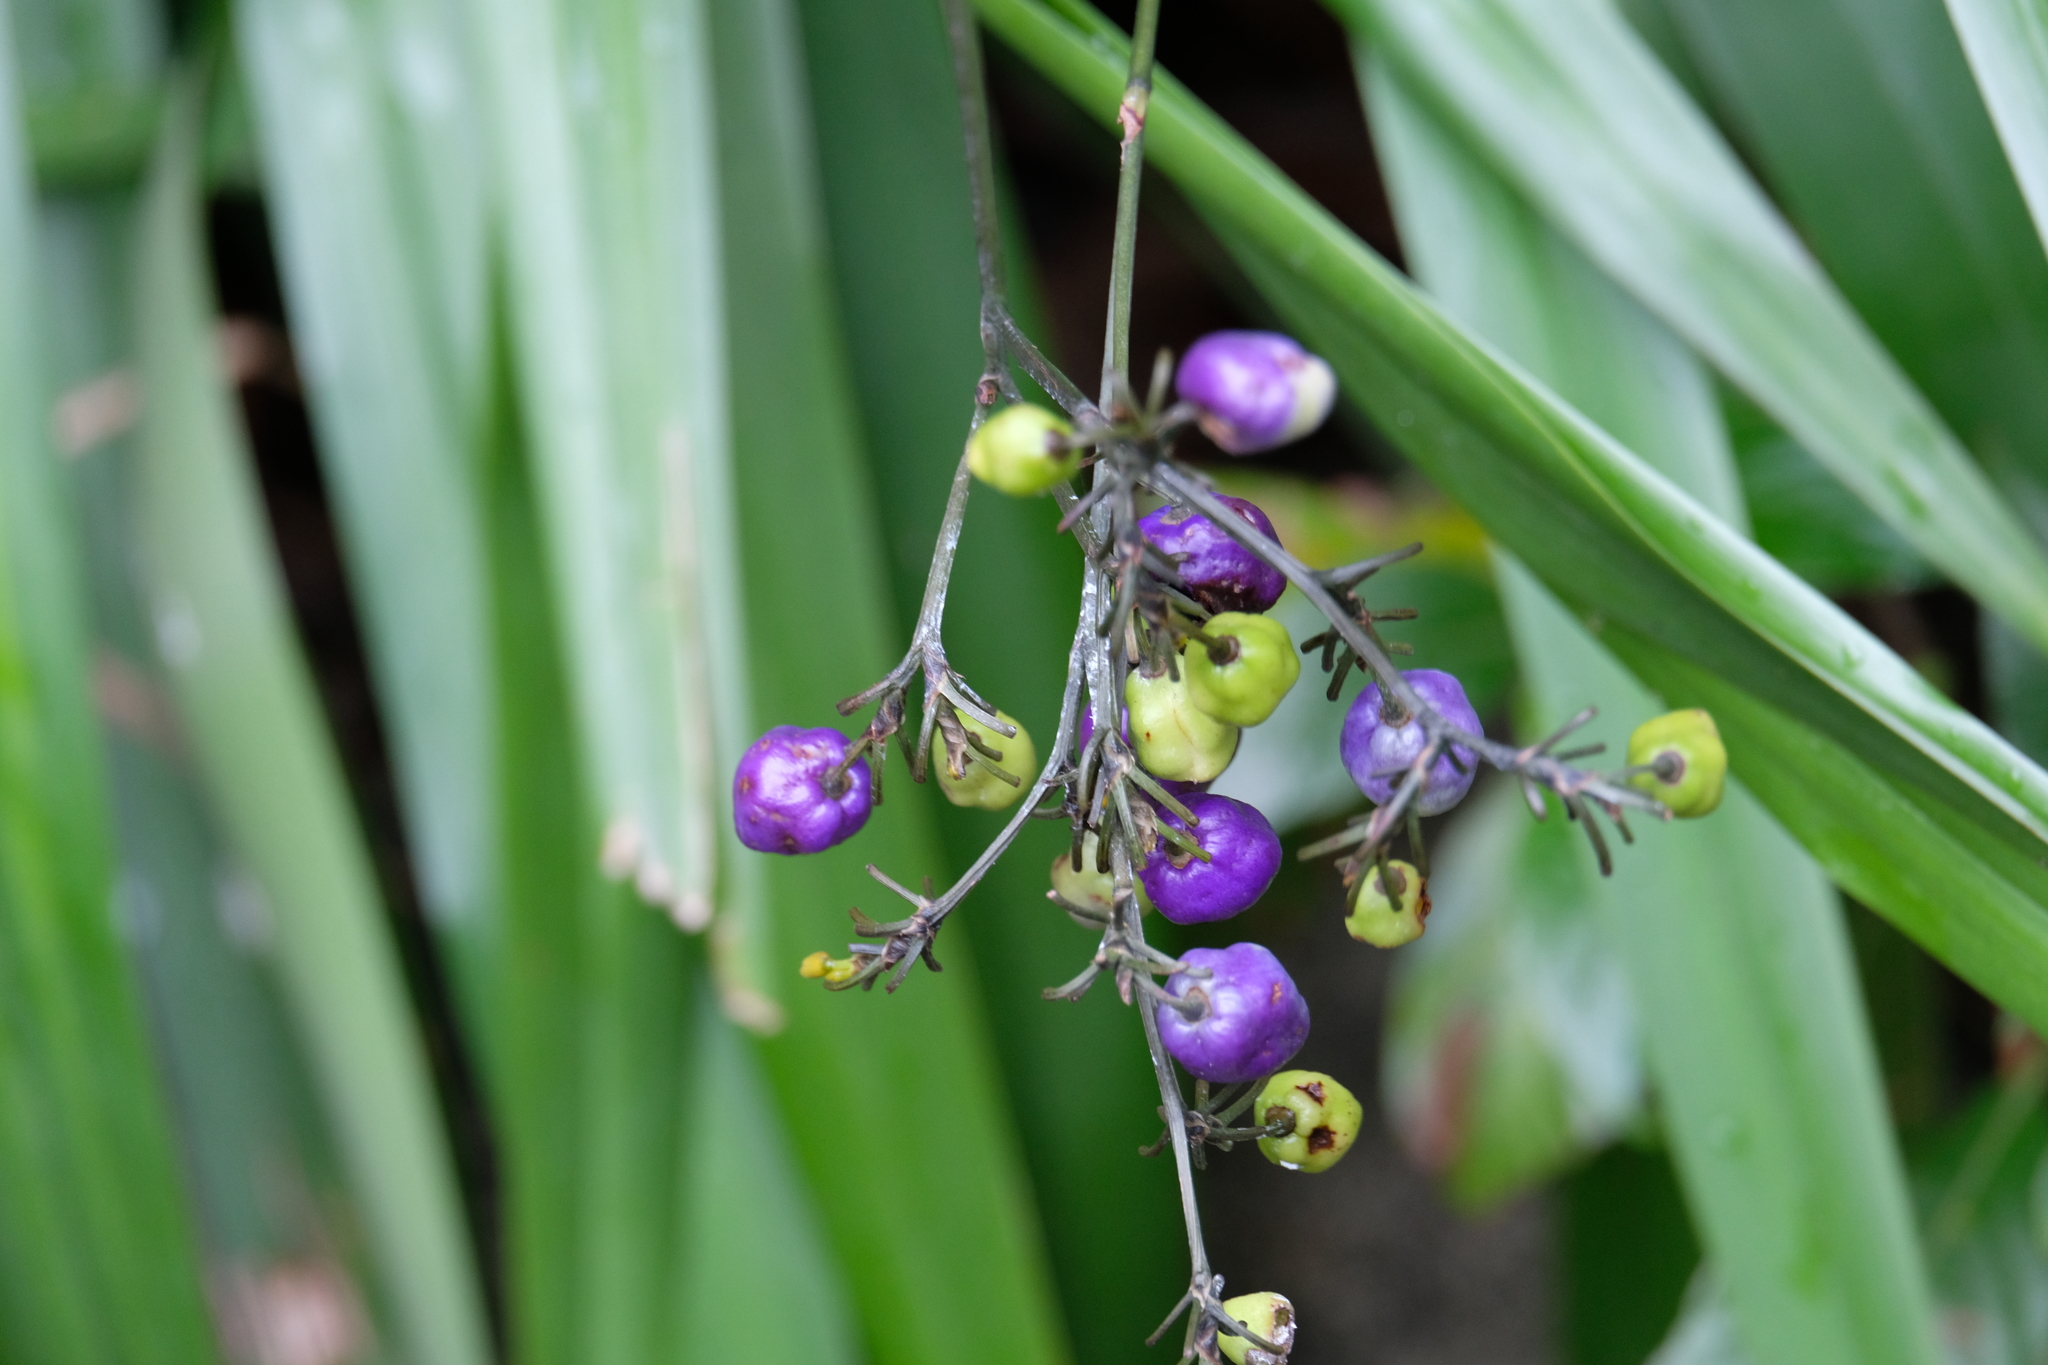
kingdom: Plantae
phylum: Tracheophyta
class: Liliopsida
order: Asparagales
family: Asphodelaceae
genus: Dianella
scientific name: Dianella ensifolia
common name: New zealand lilyplant
